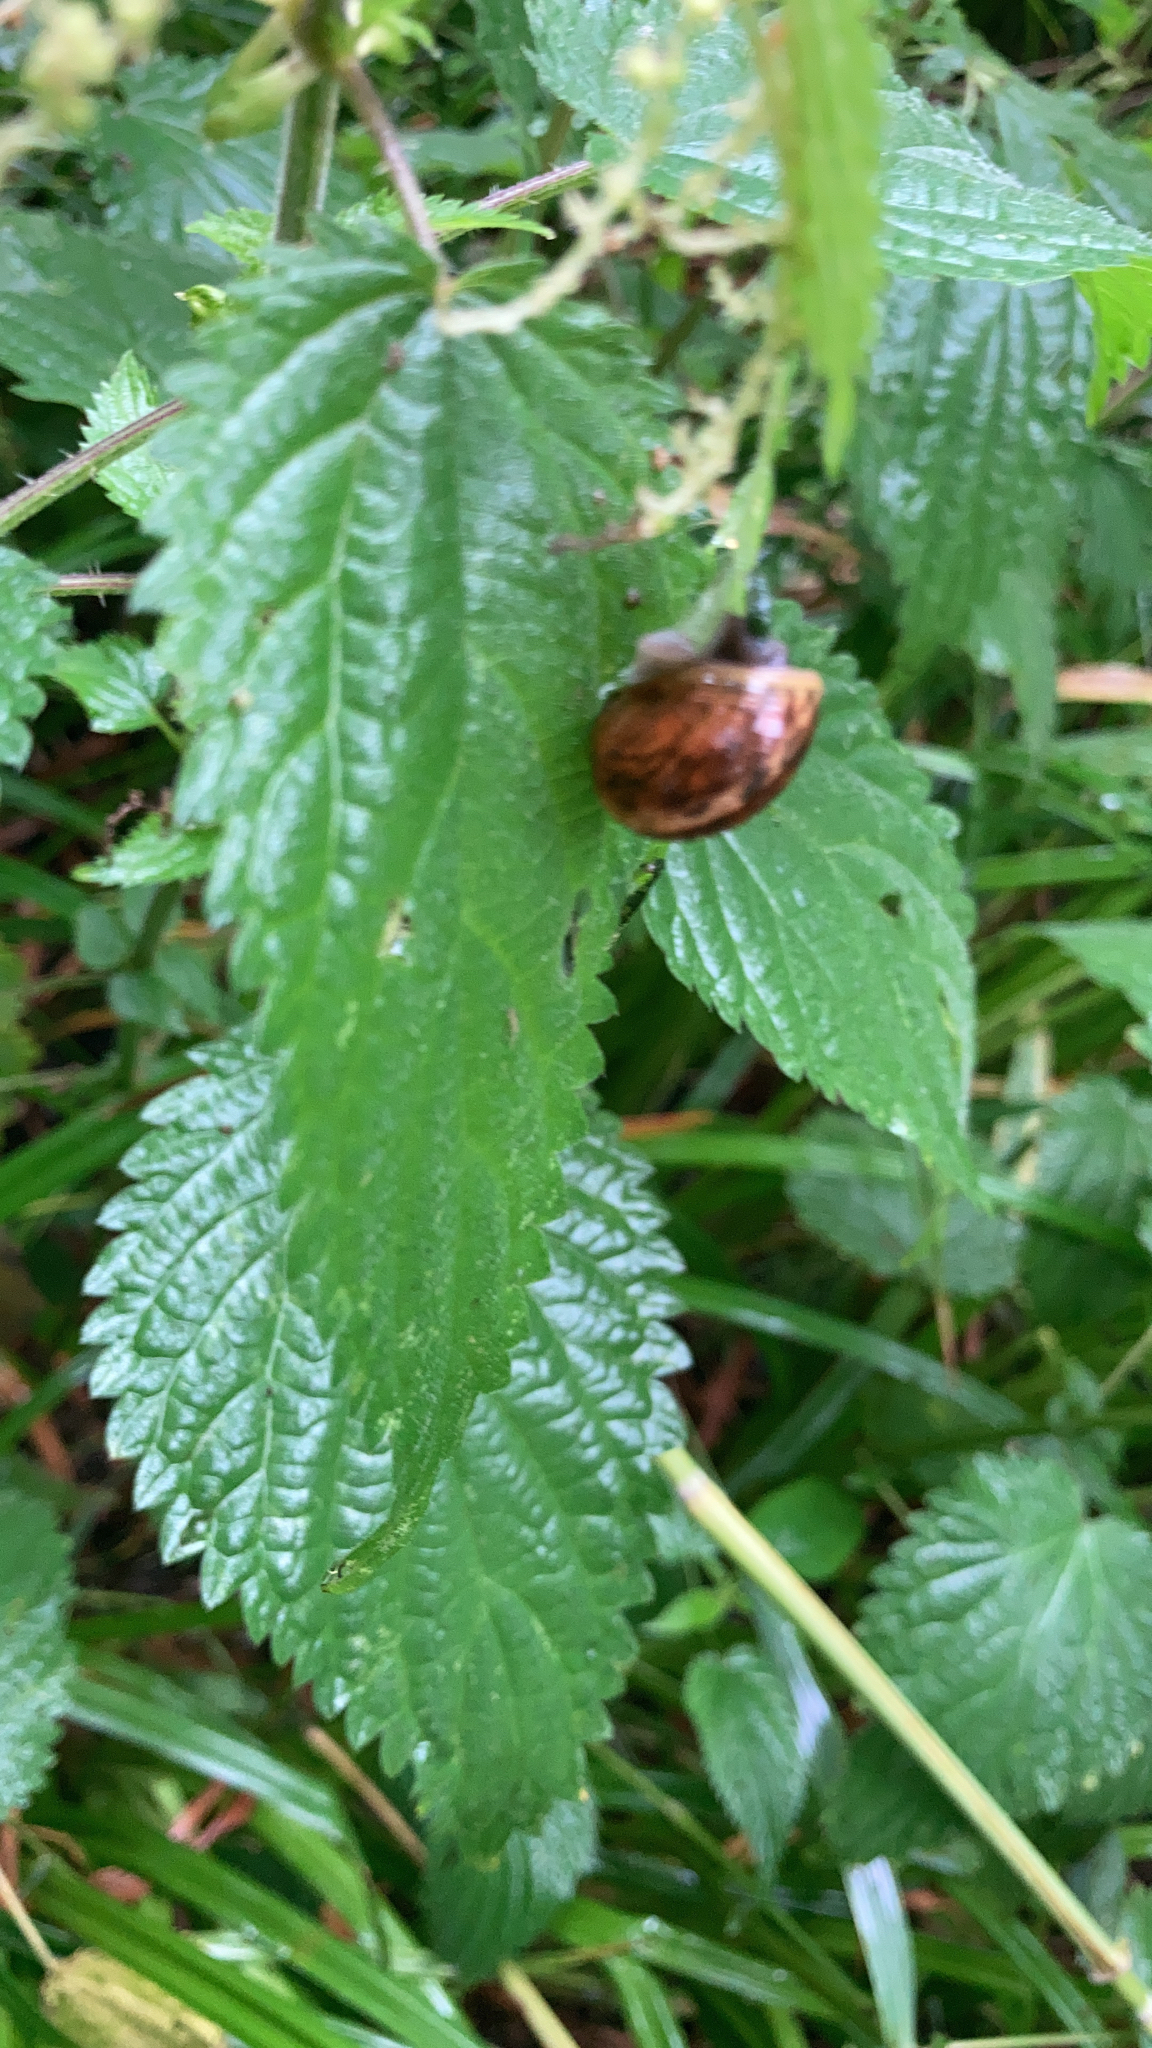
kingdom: Animalia
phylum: Mollusca
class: Gastropoda
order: Stylommatophora
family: Helicidae
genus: Arianta
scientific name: Arianta arbustorum
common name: Copse snail
